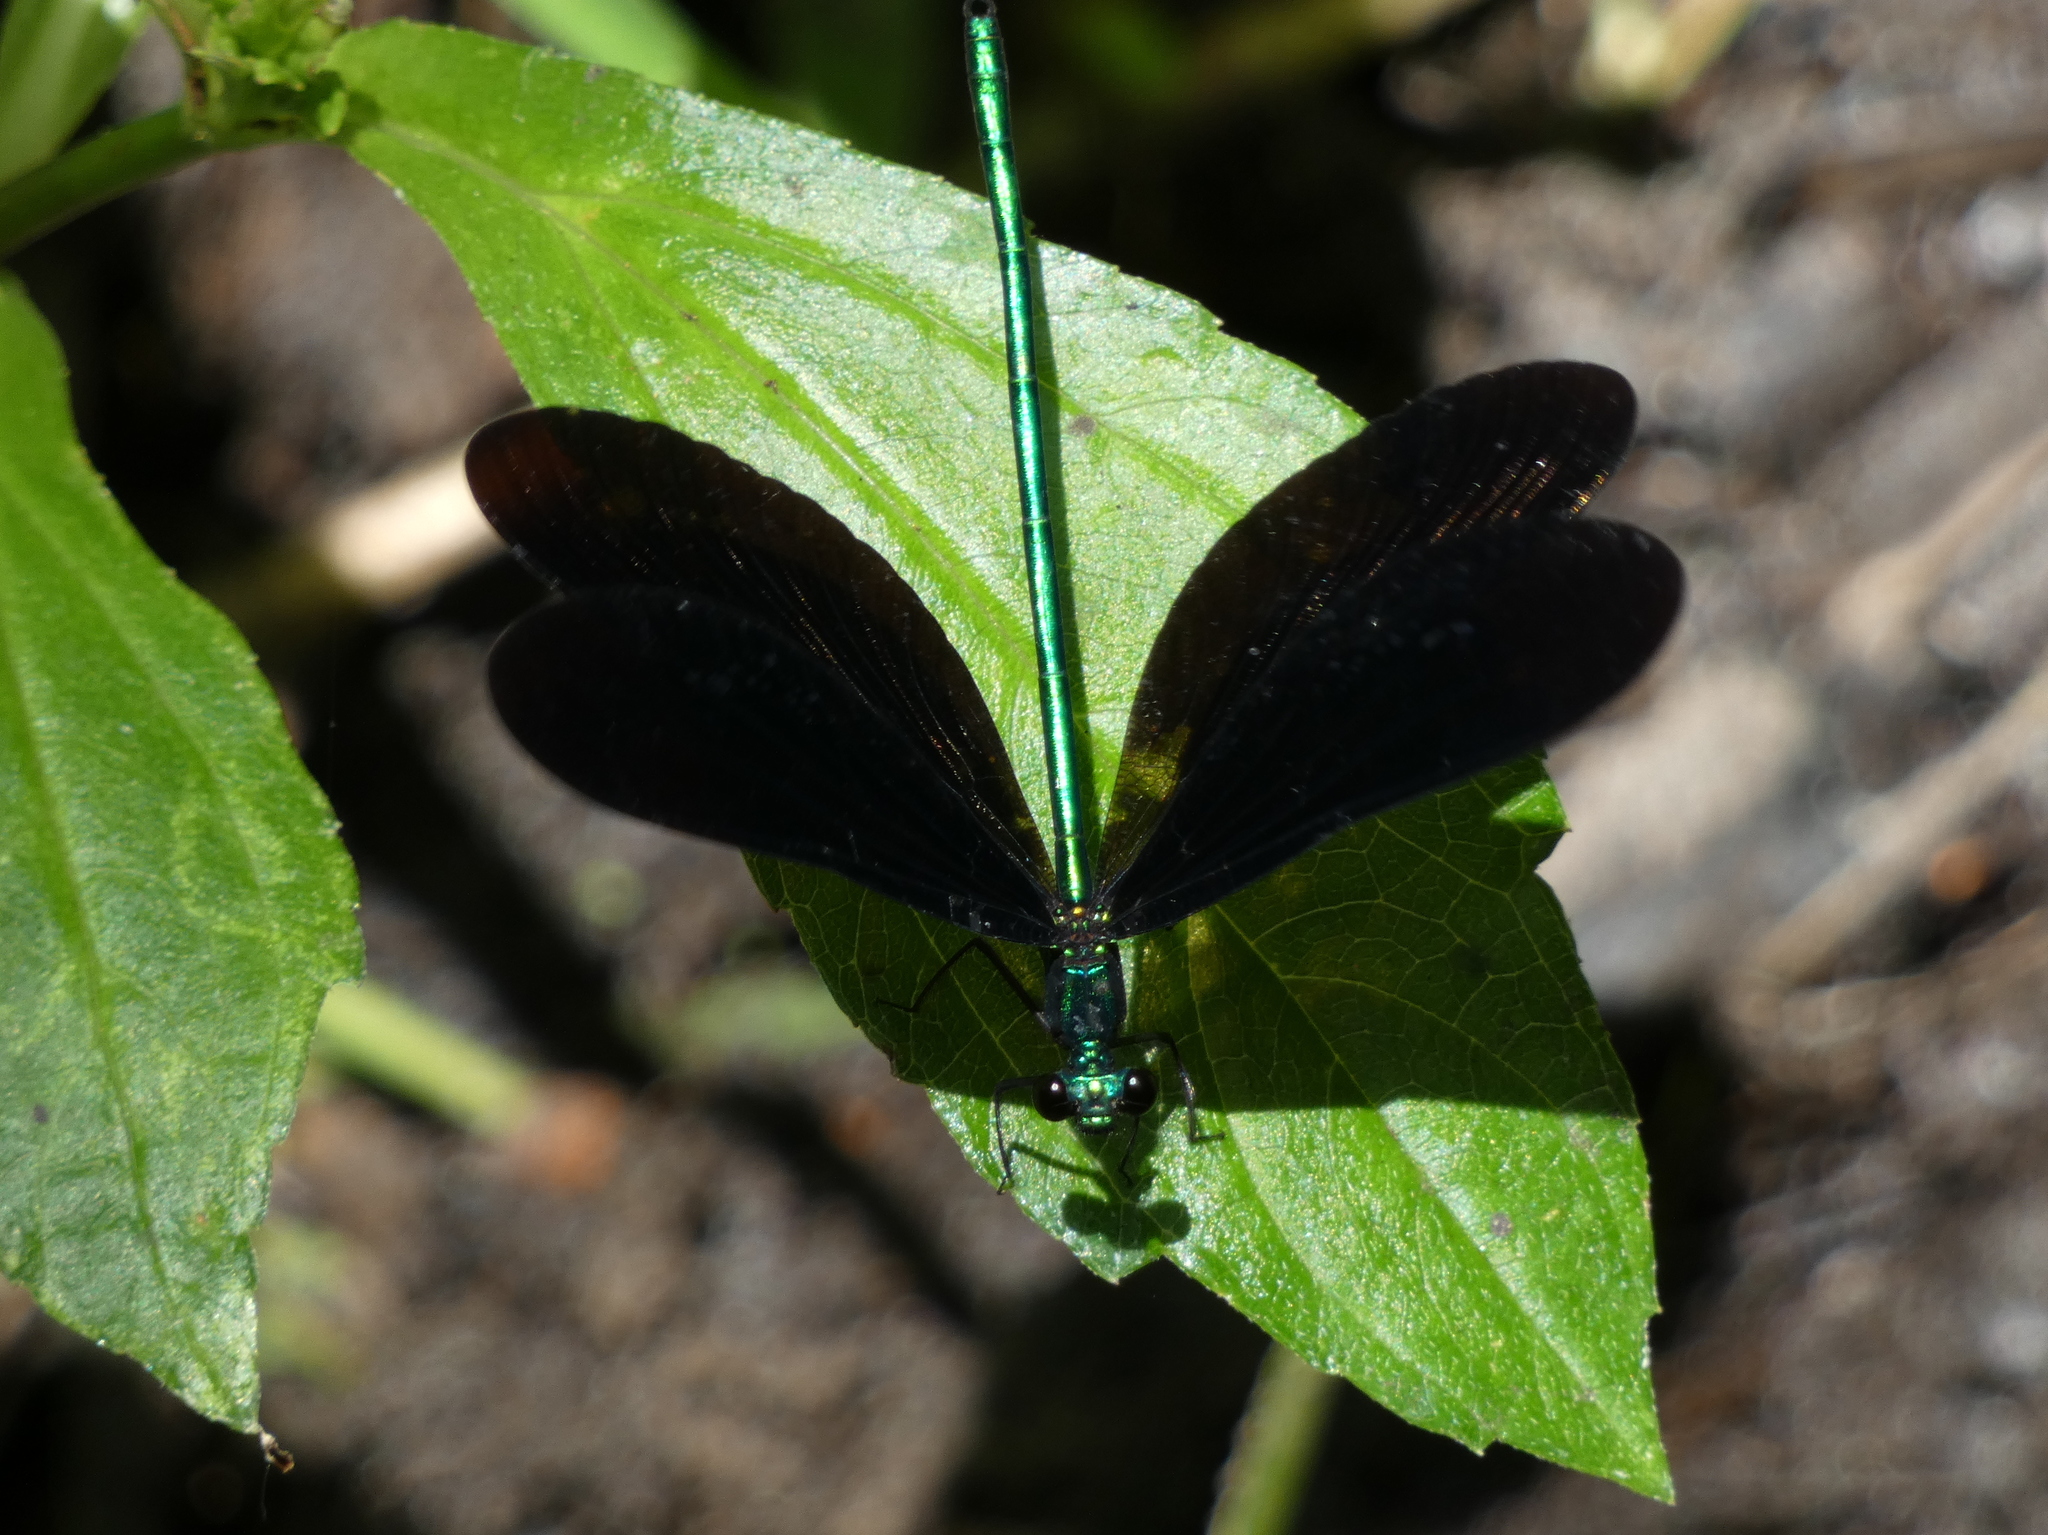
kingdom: Animalia
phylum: Arthropoda
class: Insecta
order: Odonata
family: Calopterygidae
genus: Calopteryx
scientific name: Calopteryx maculata
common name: Ebony jewelwing
